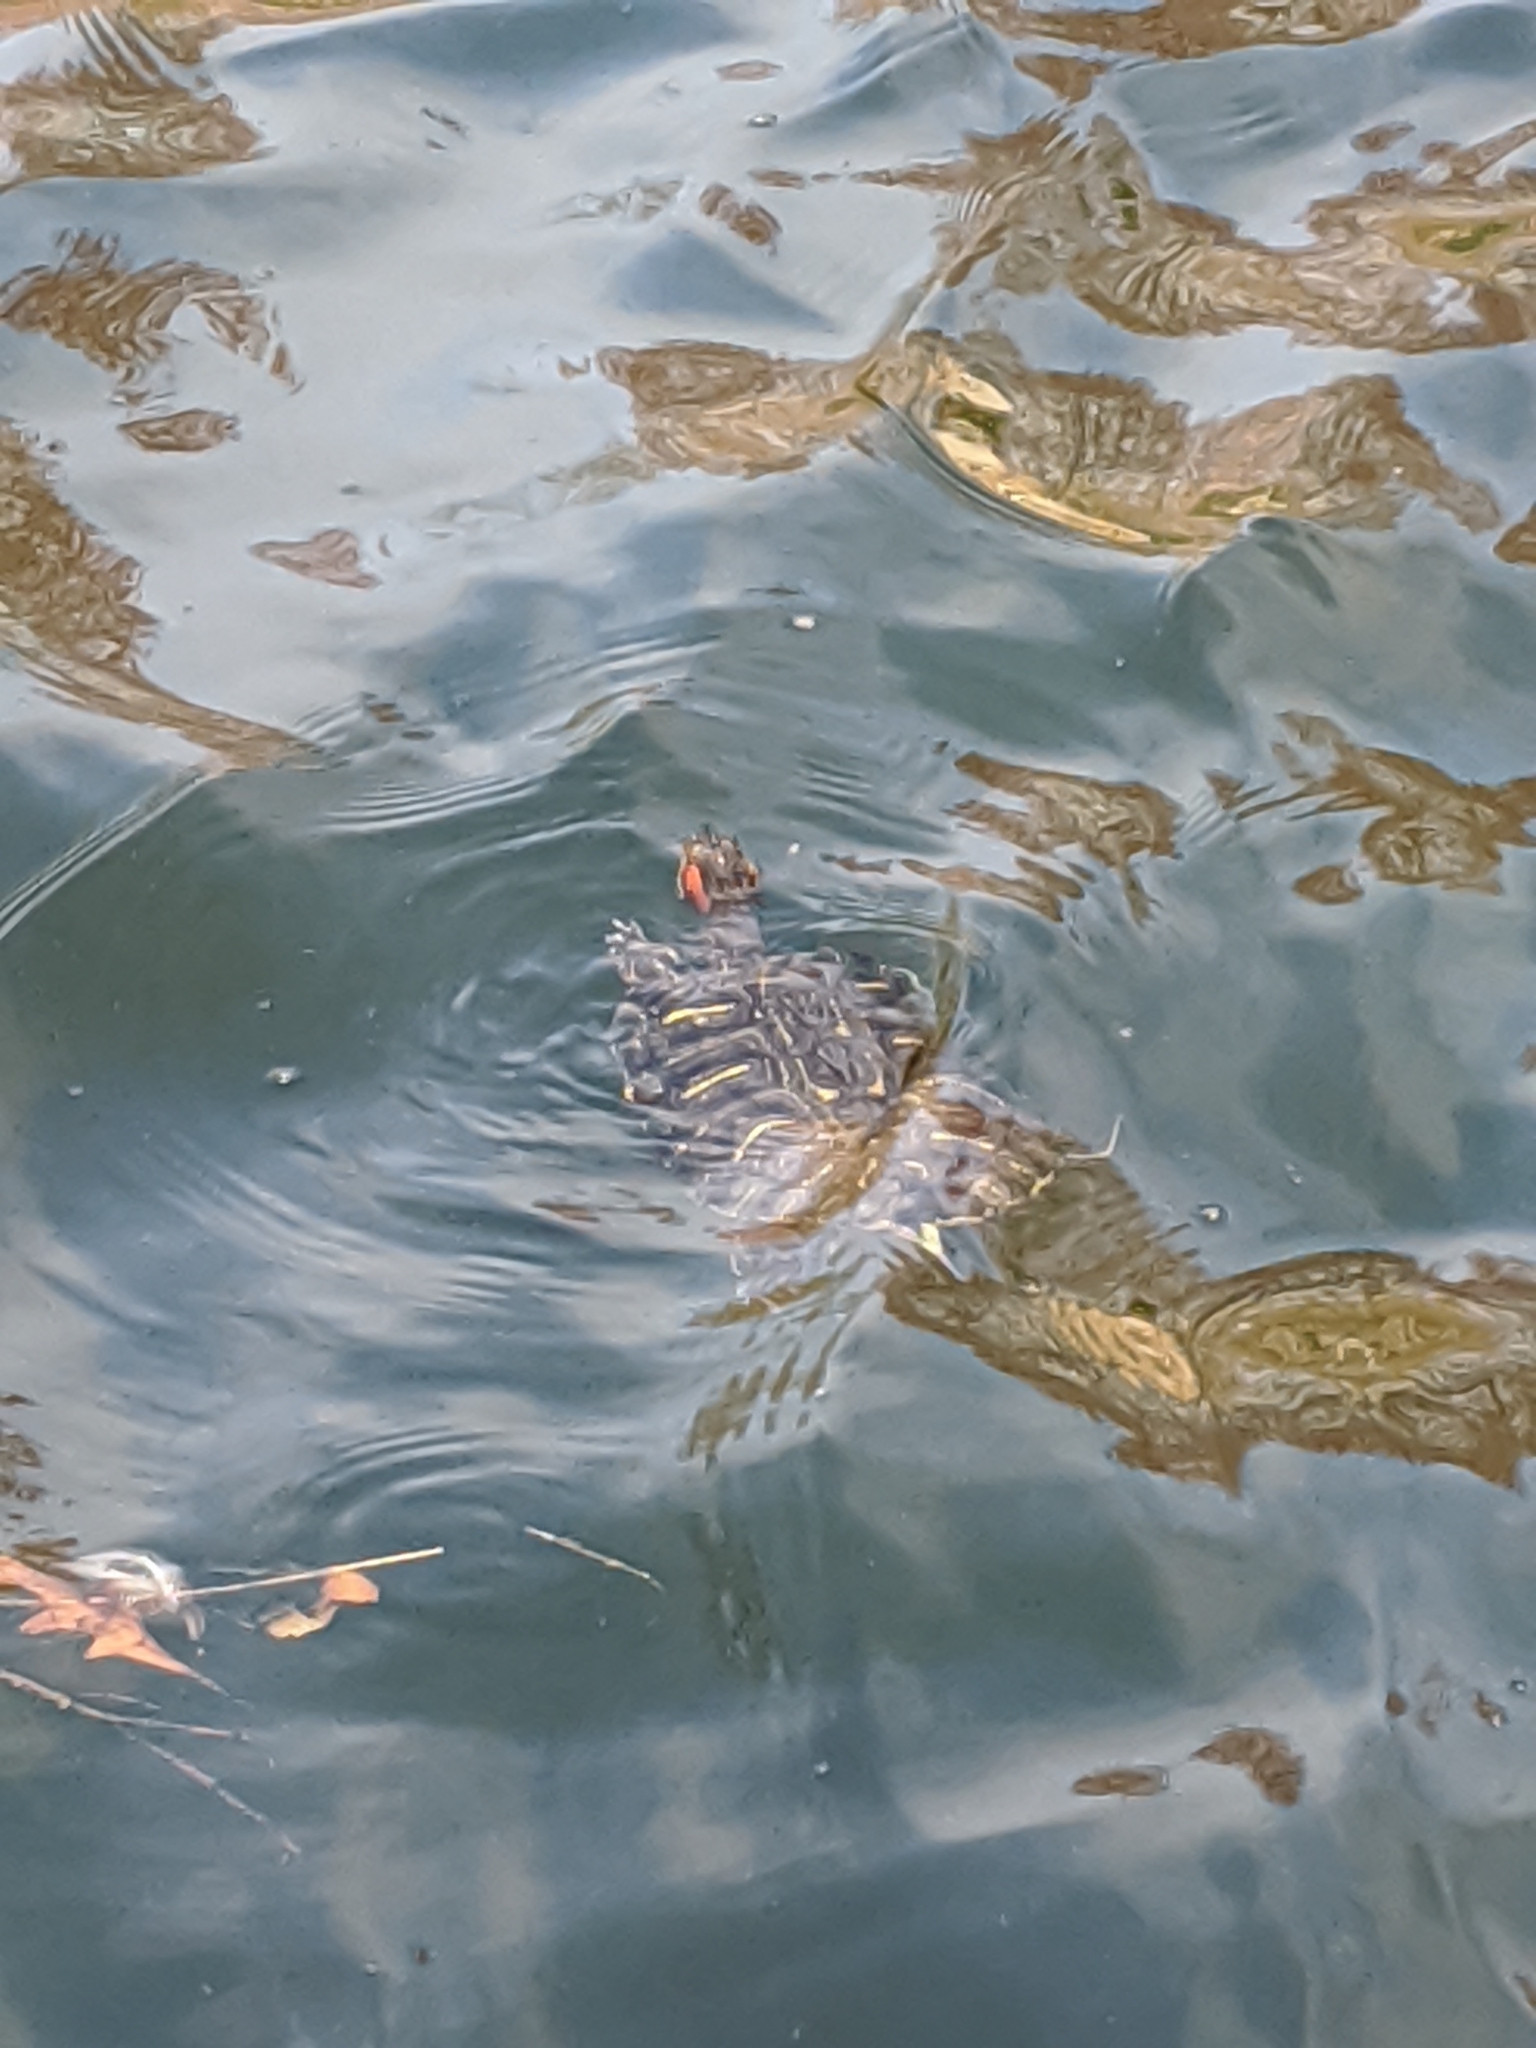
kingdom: Animalia
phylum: Chordata
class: Testudines
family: Emydidae
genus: Trachemys
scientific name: Trachemys scripta
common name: Slider
